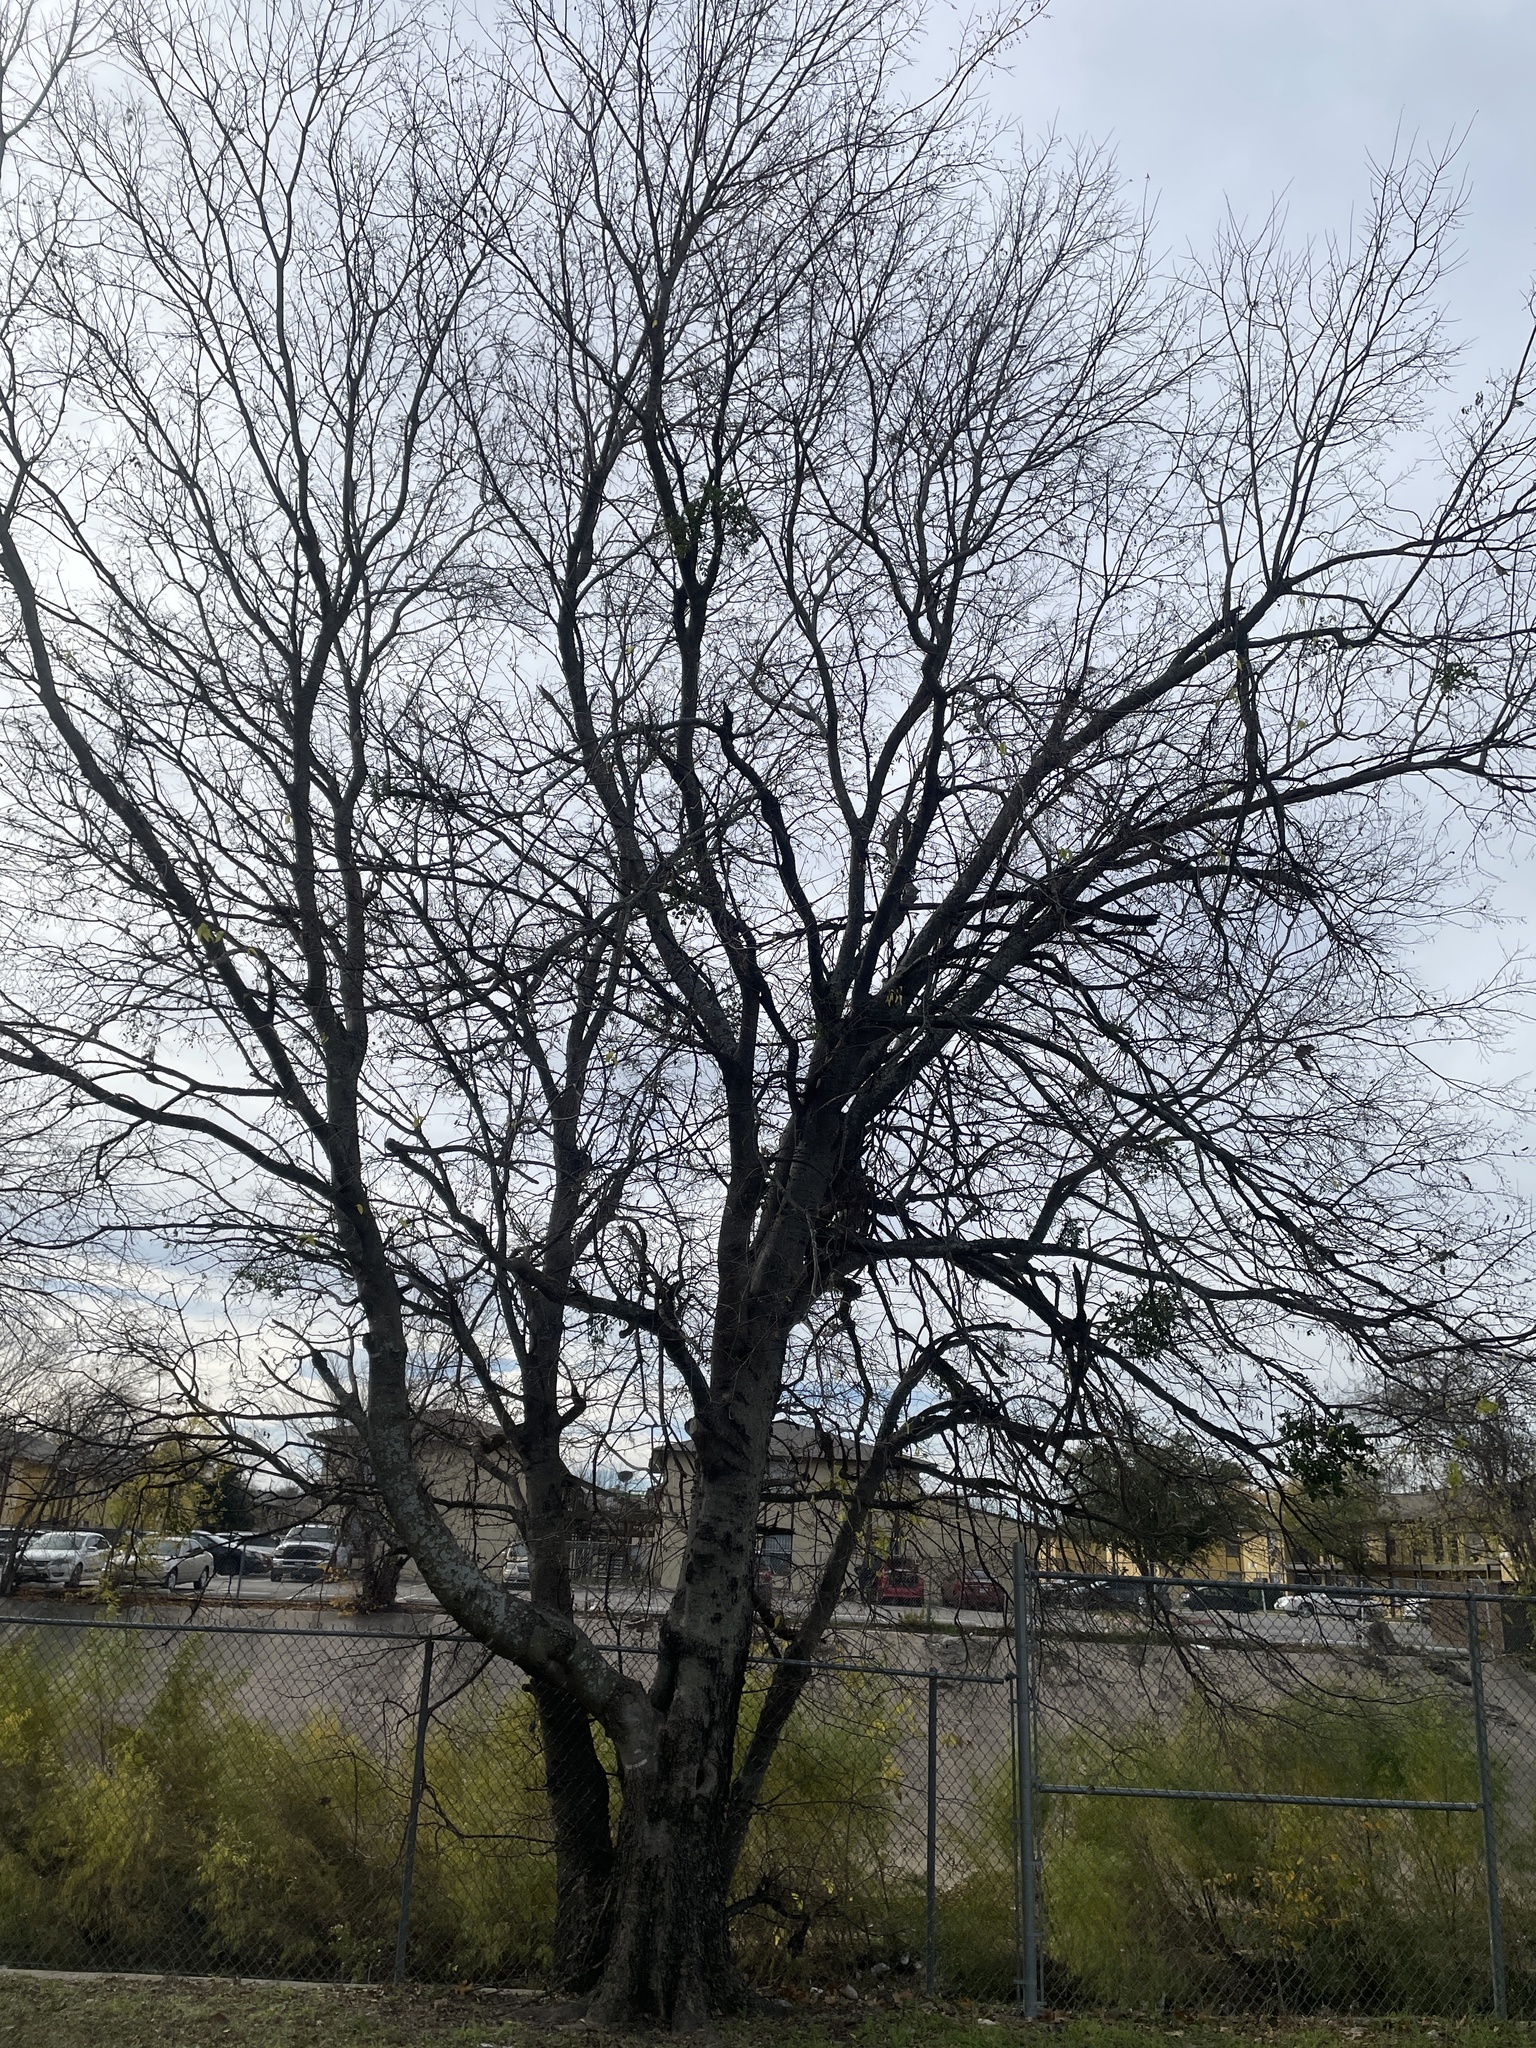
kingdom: Plantae
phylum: Tracheophyta
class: Magnoliopsida
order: Rosales
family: Cannabaceae
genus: Celtis
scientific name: Celtis laevigata
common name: Sugarberry
